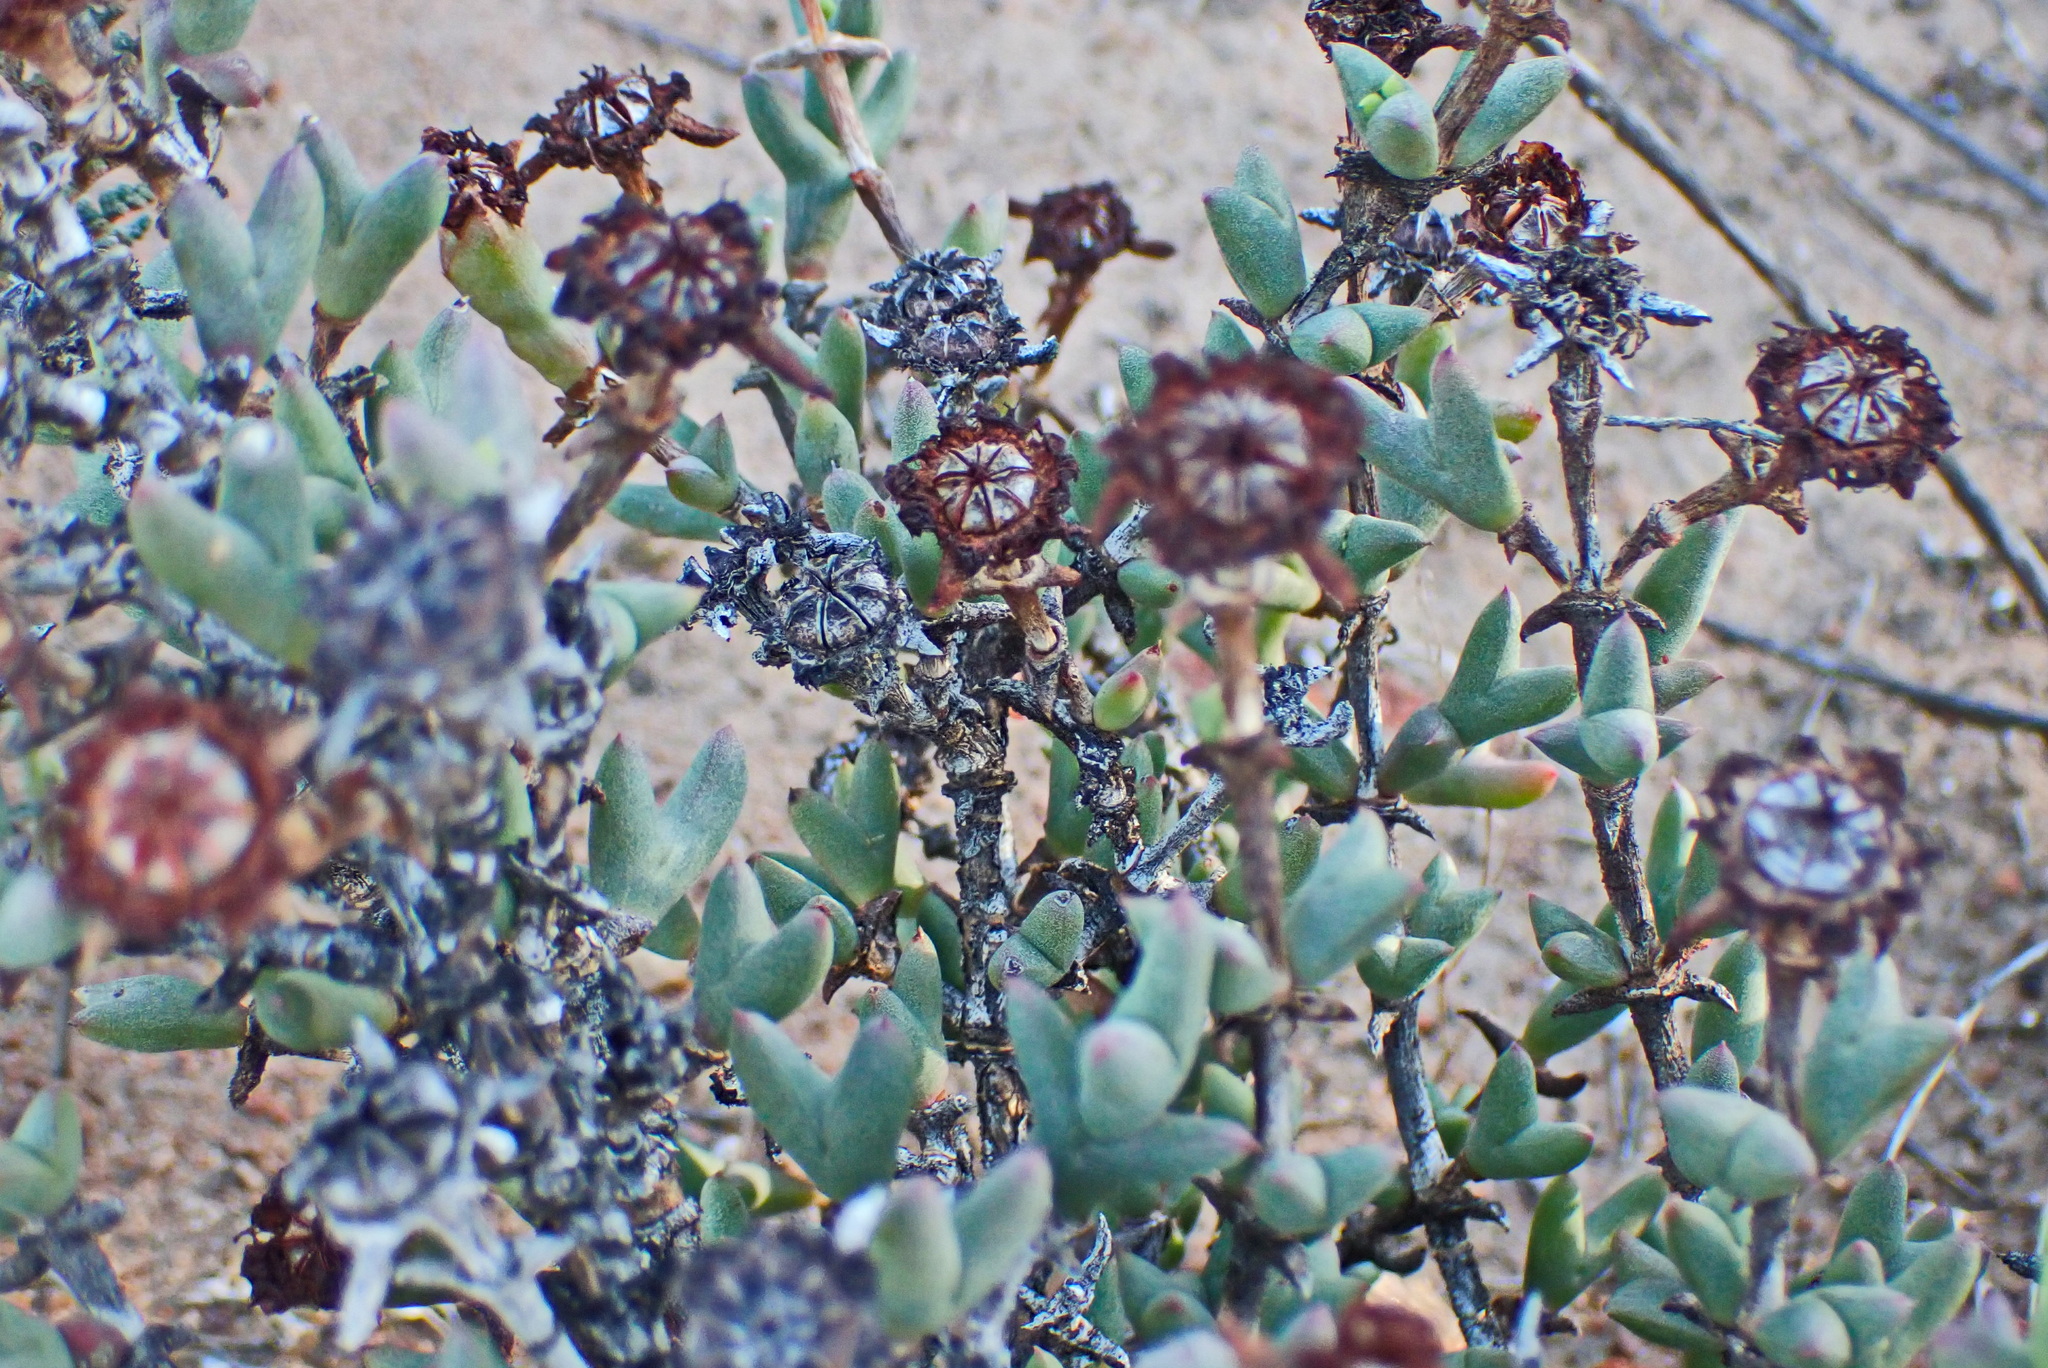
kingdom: Plantae
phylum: Tracheophyta
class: Magnoliopsida
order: Caryophyllales
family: Aizoaceae
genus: Smicrostigma
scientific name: Smicrostigma viride
